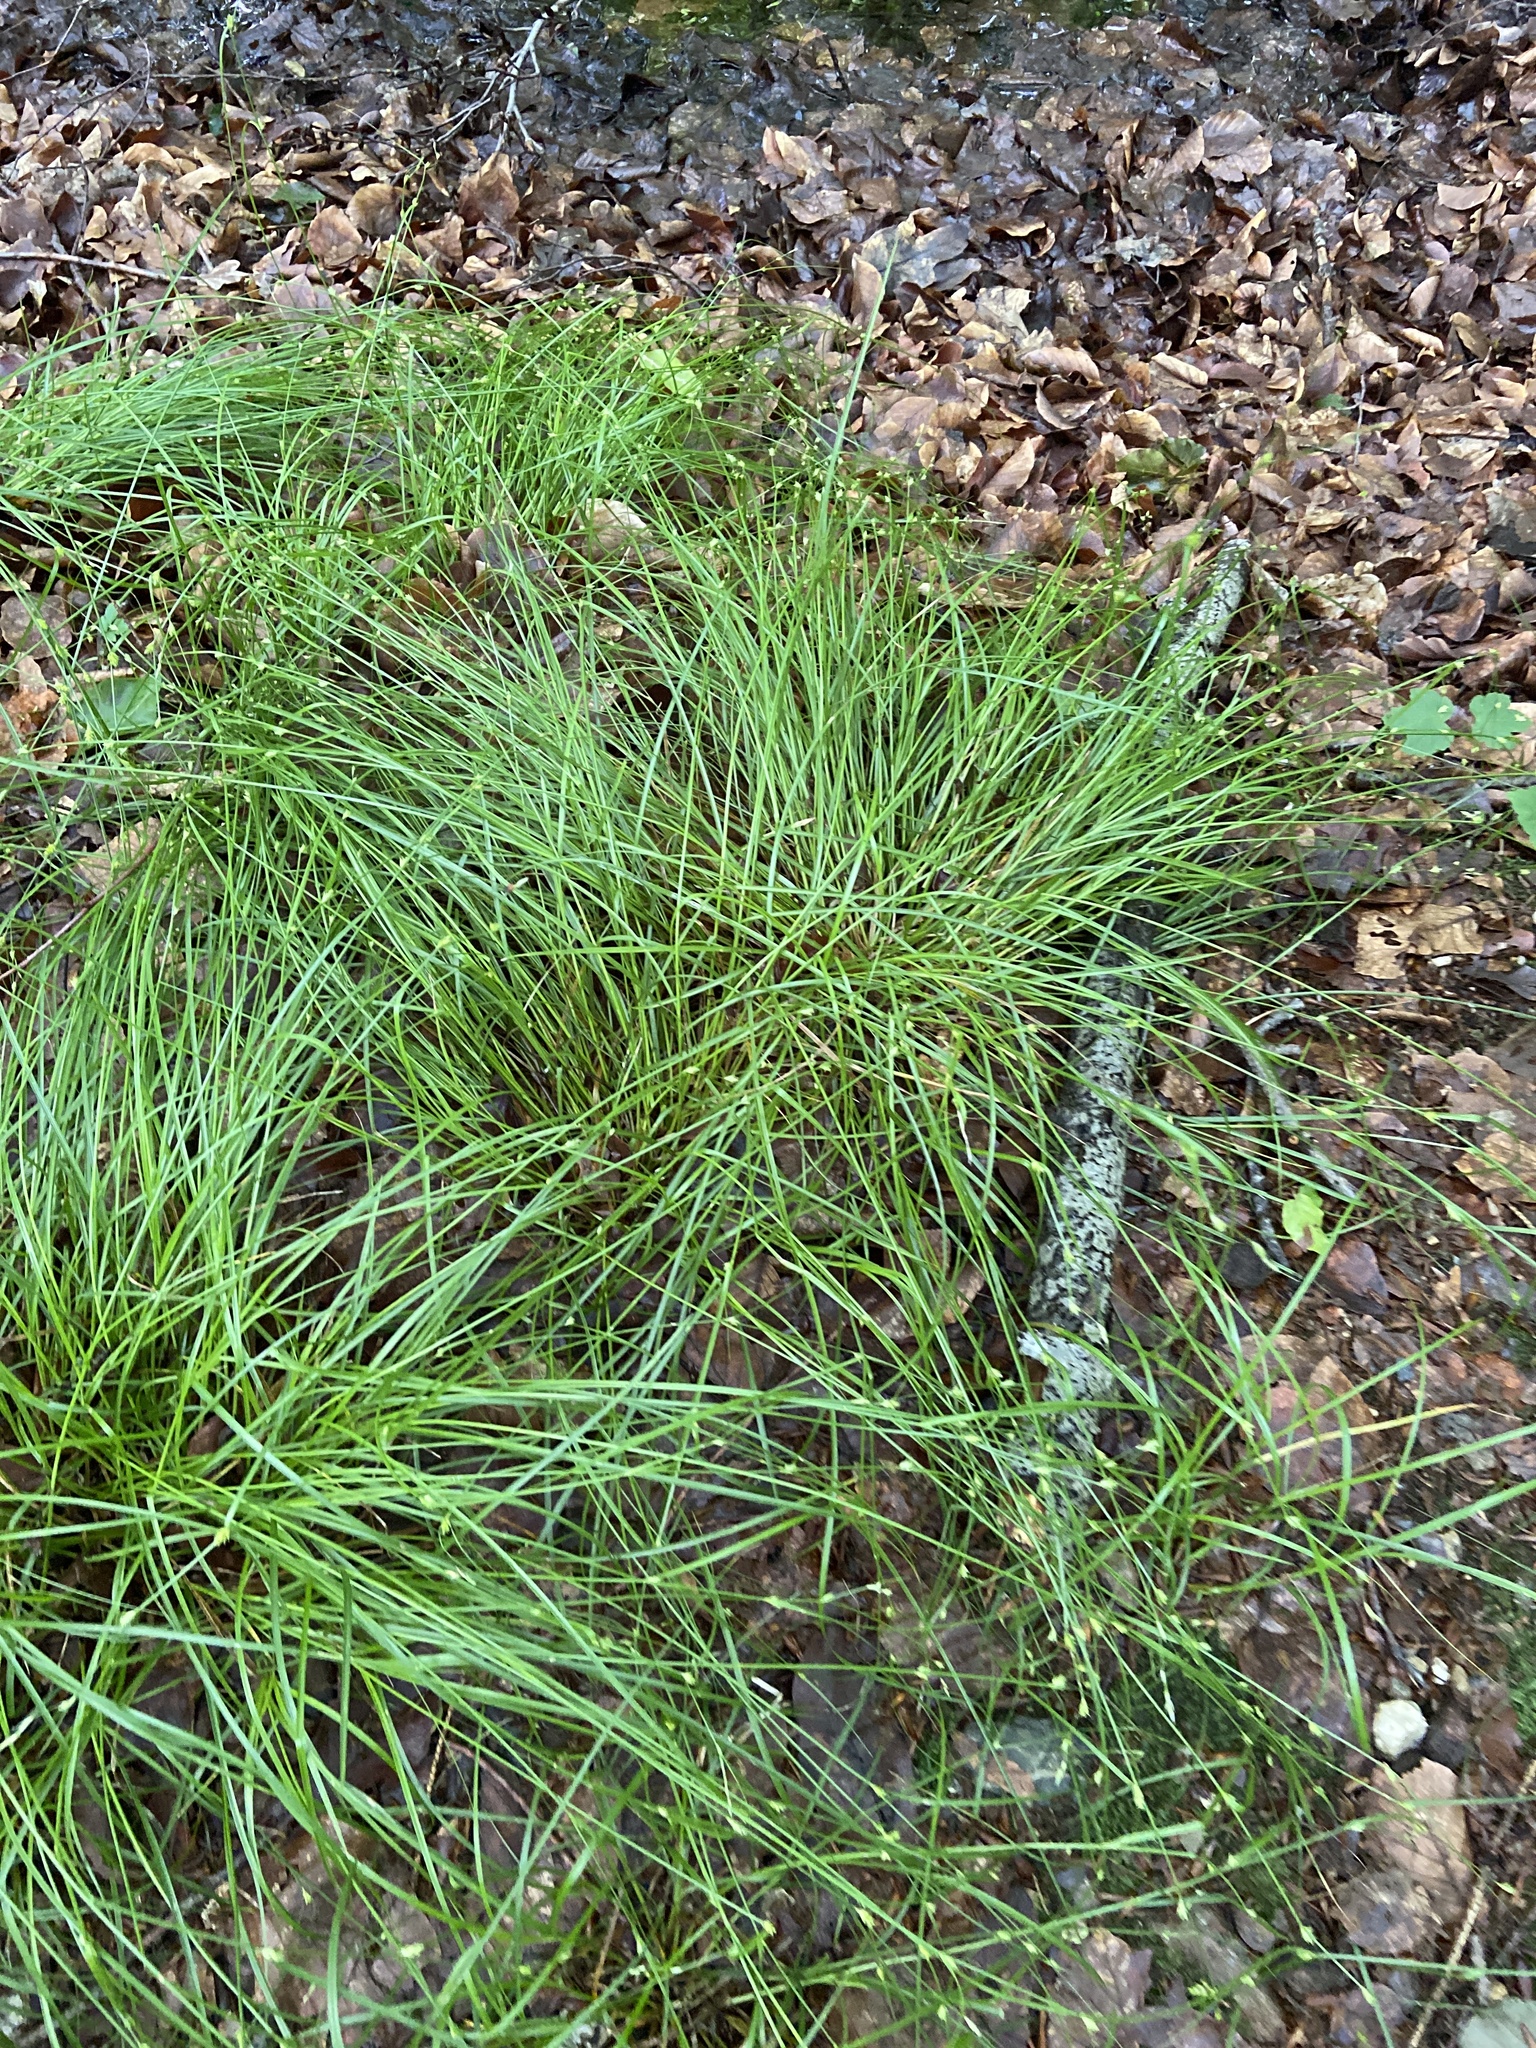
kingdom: Plantae
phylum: Tracheophyta
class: Liliopsida
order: Poales
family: Cyperaceae
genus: Carex
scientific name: Carex remota
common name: Remote sedge
